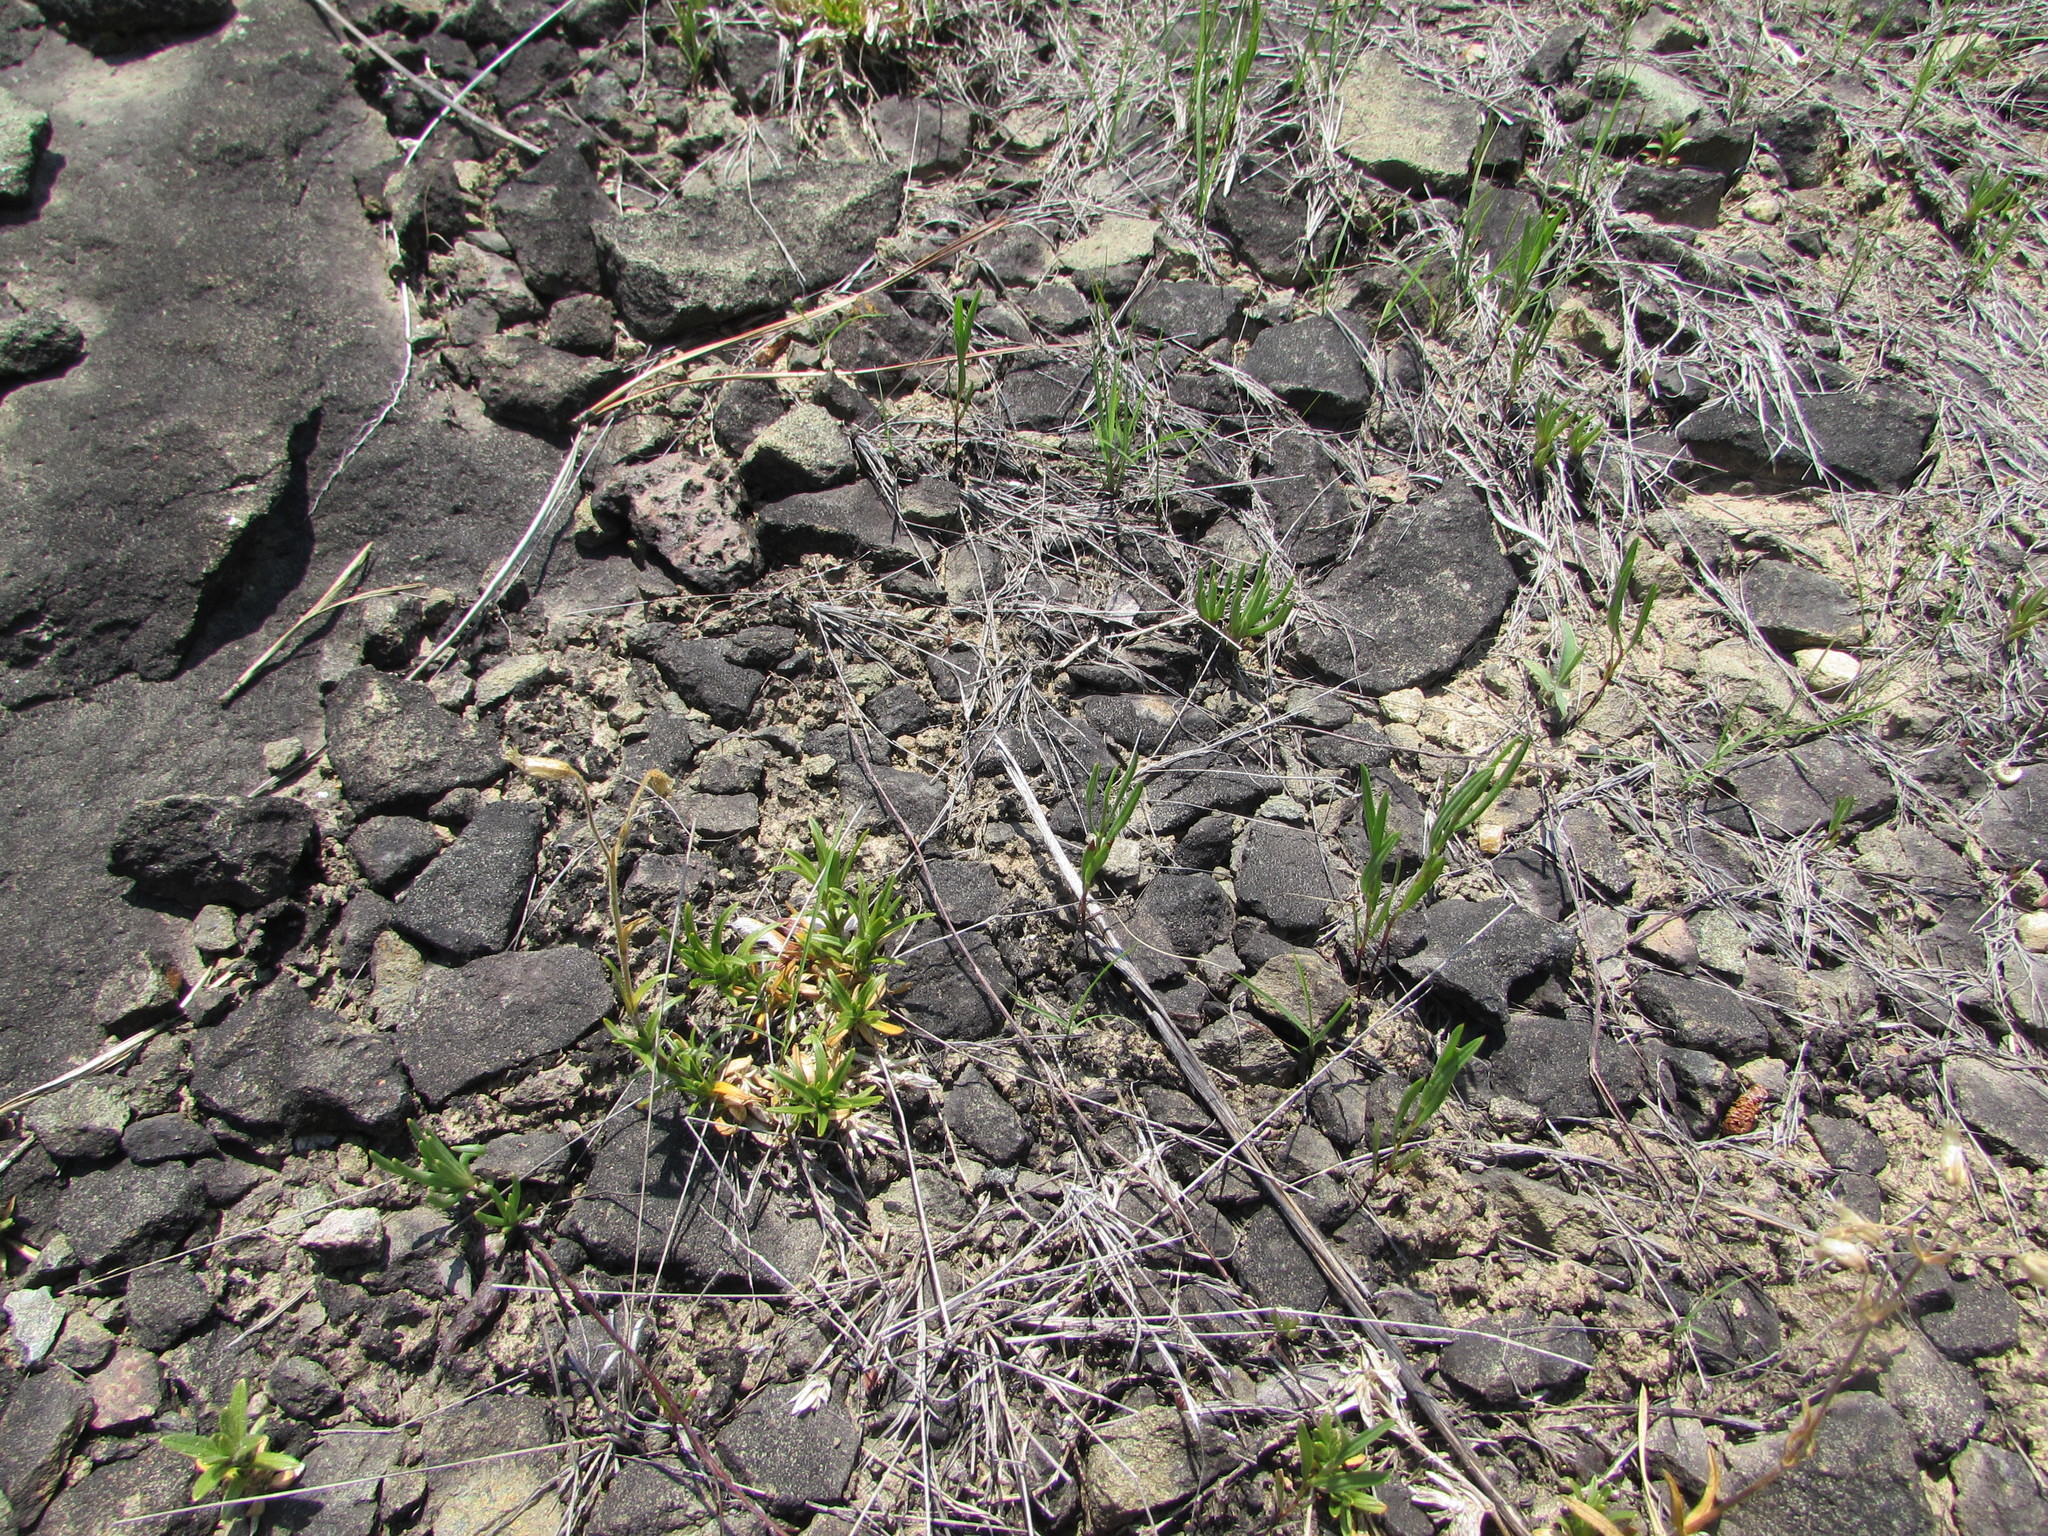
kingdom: Plantae
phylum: Tracheophyta
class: Magnoliopsida
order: Caryophyllales
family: Montiaceae
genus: Phemeranthus
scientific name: Phemeranthus teretifolius
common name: Quill fameflower
